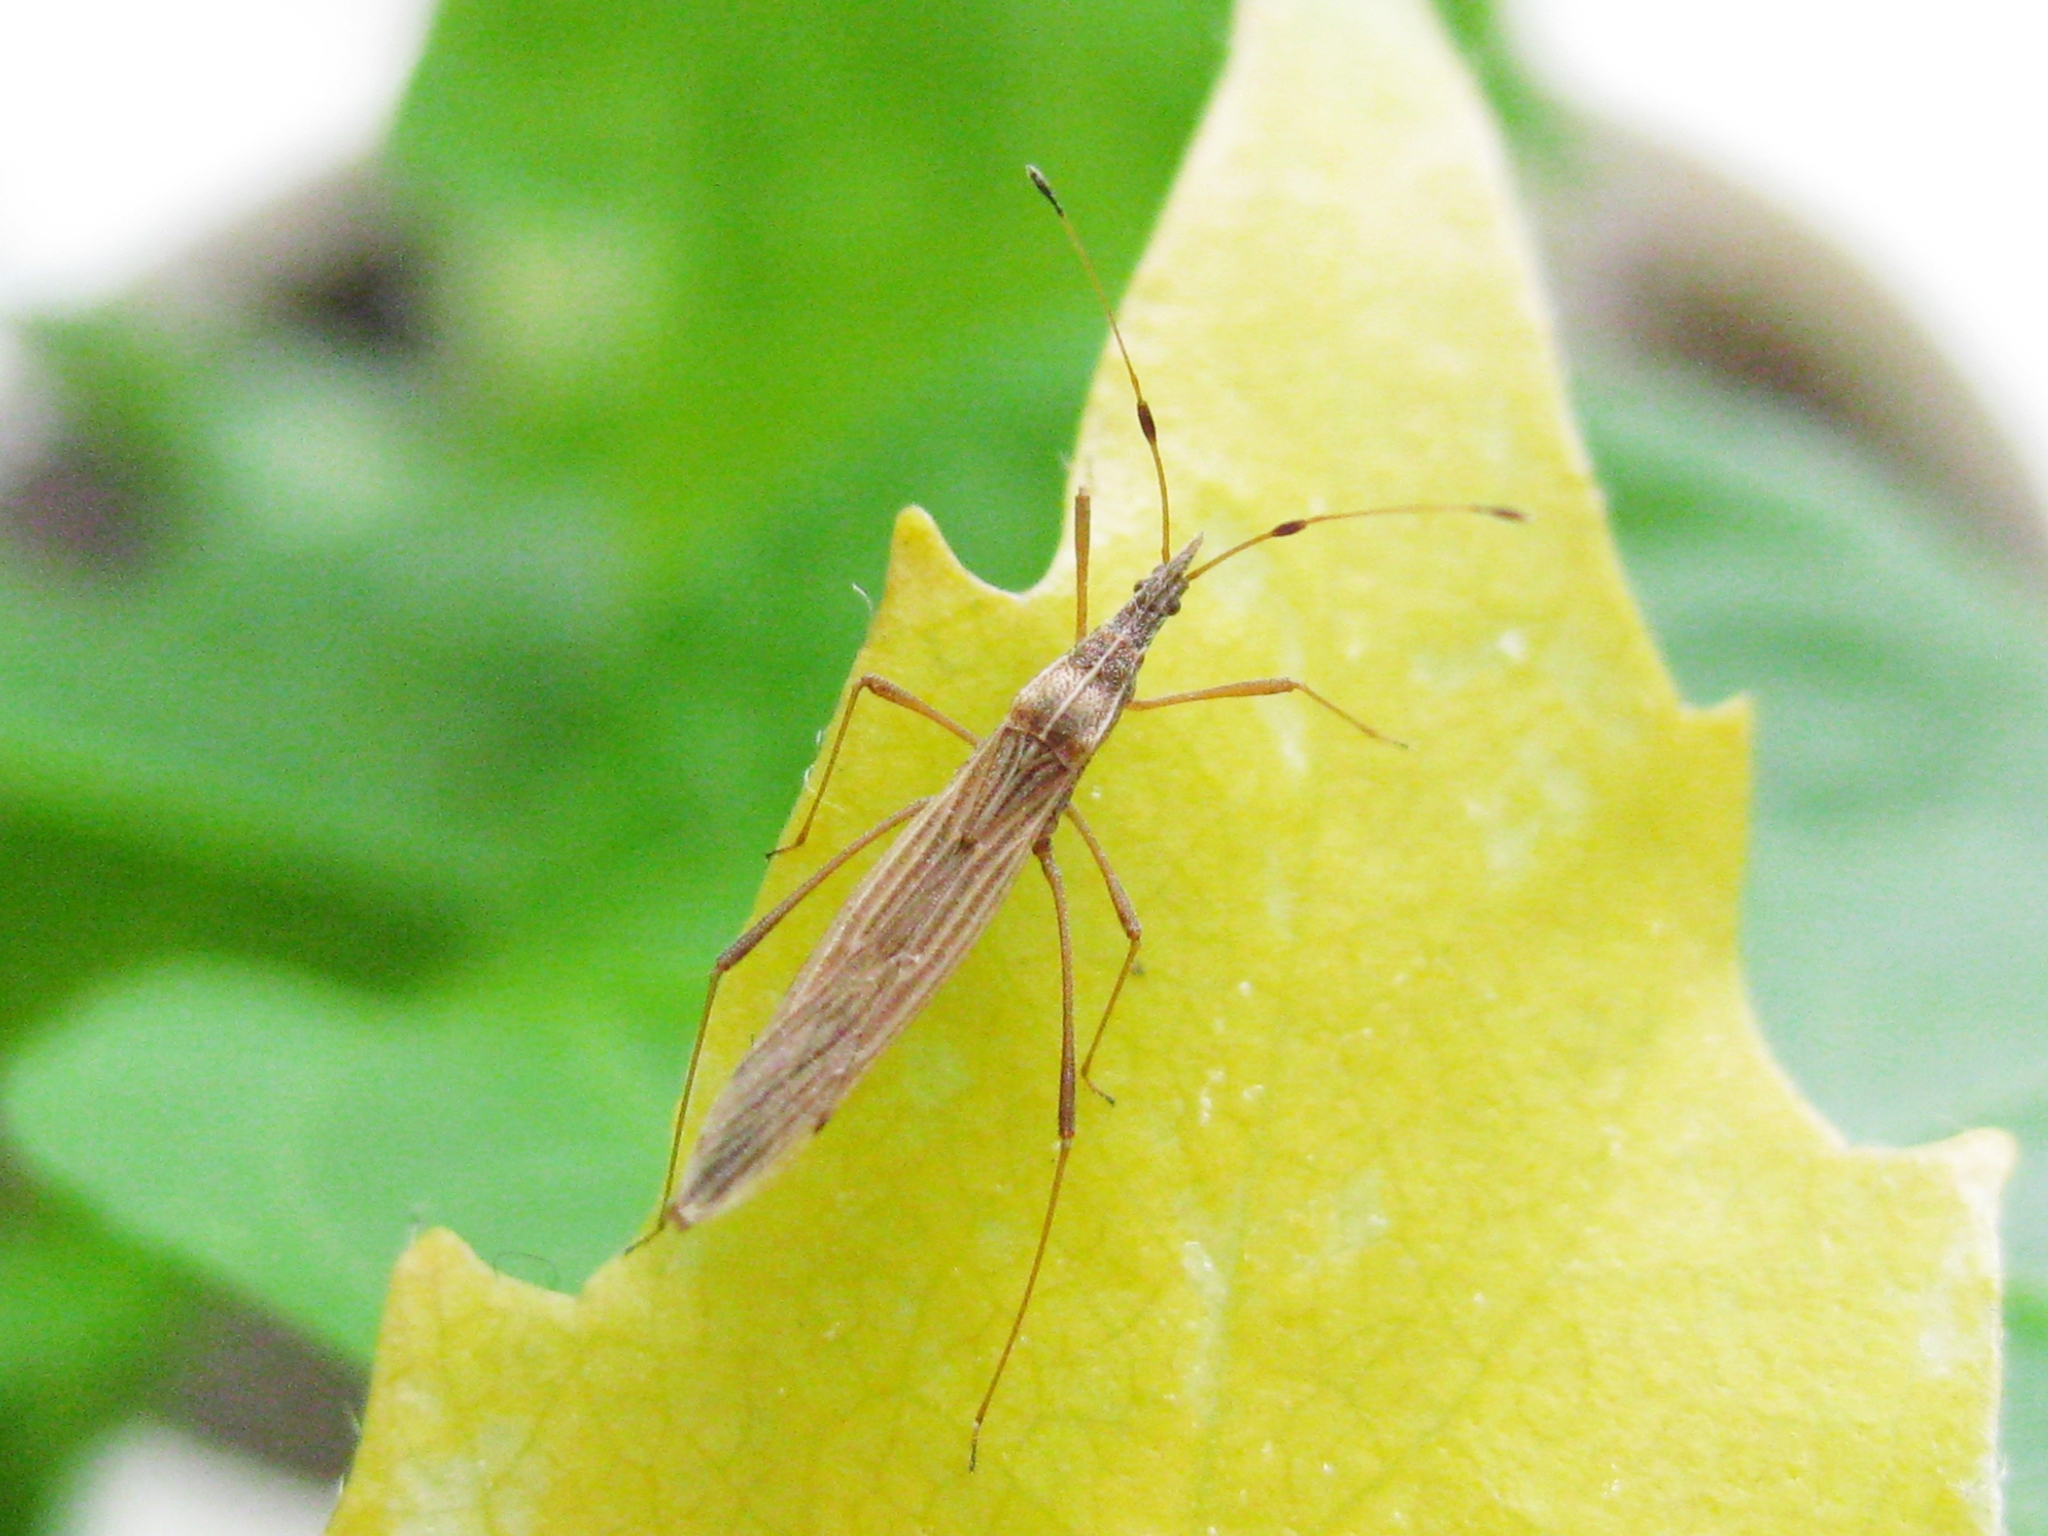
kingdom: Animalia
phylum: Arthropoda
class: Insecta
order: Hemiptera
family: Berytidae
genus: Berytinus
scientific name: Berytinus
